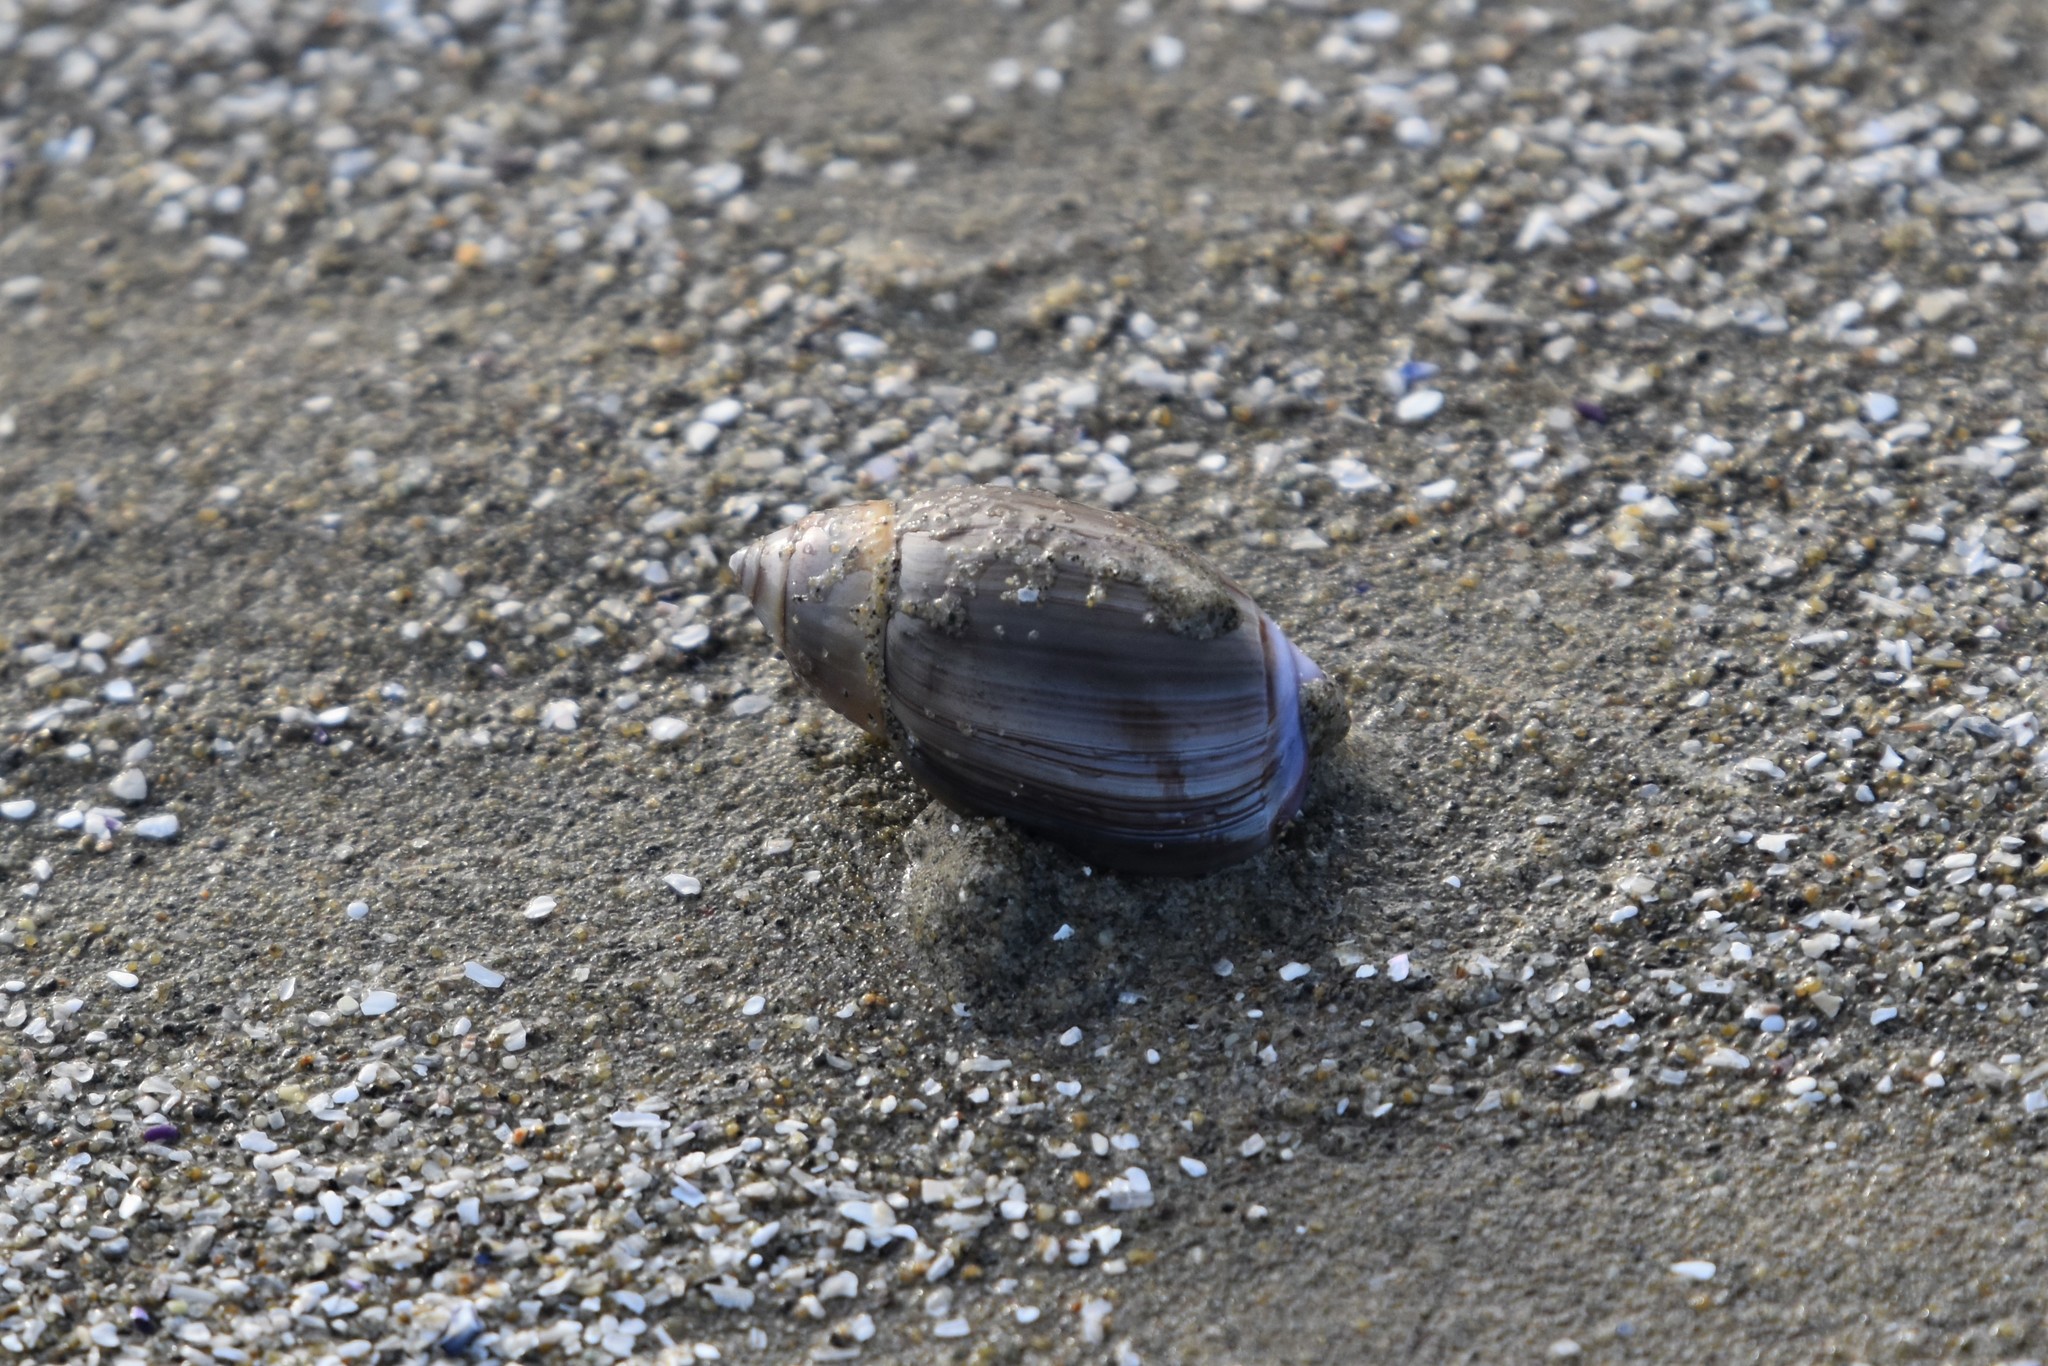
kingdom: Animalia
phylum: Mollusca
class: Gastropoda
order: Neogastropoda
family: Olividae
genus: Callianax
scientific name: Callianax biplicata
